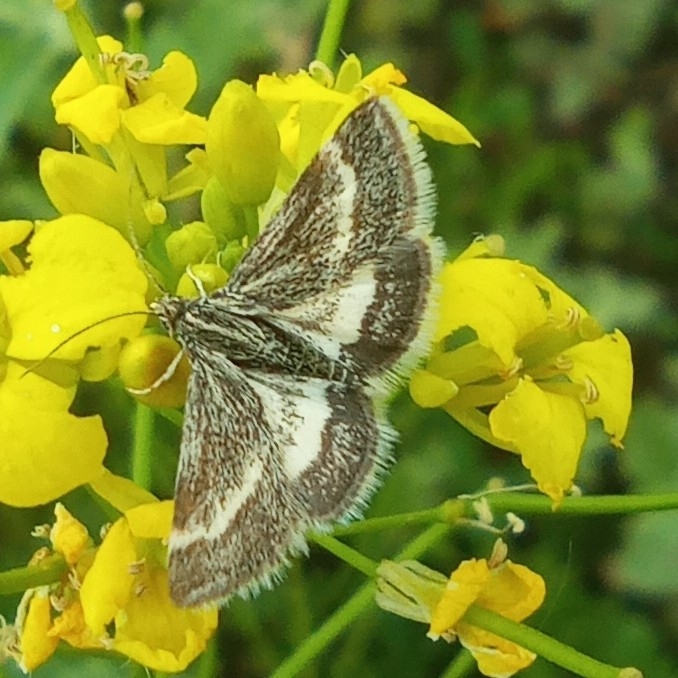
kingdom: Animalia
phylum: Arthropoda
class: Insecta
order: Lepidoptera
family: Crambidae
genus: Atralata
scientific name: Atralata albofascialis
